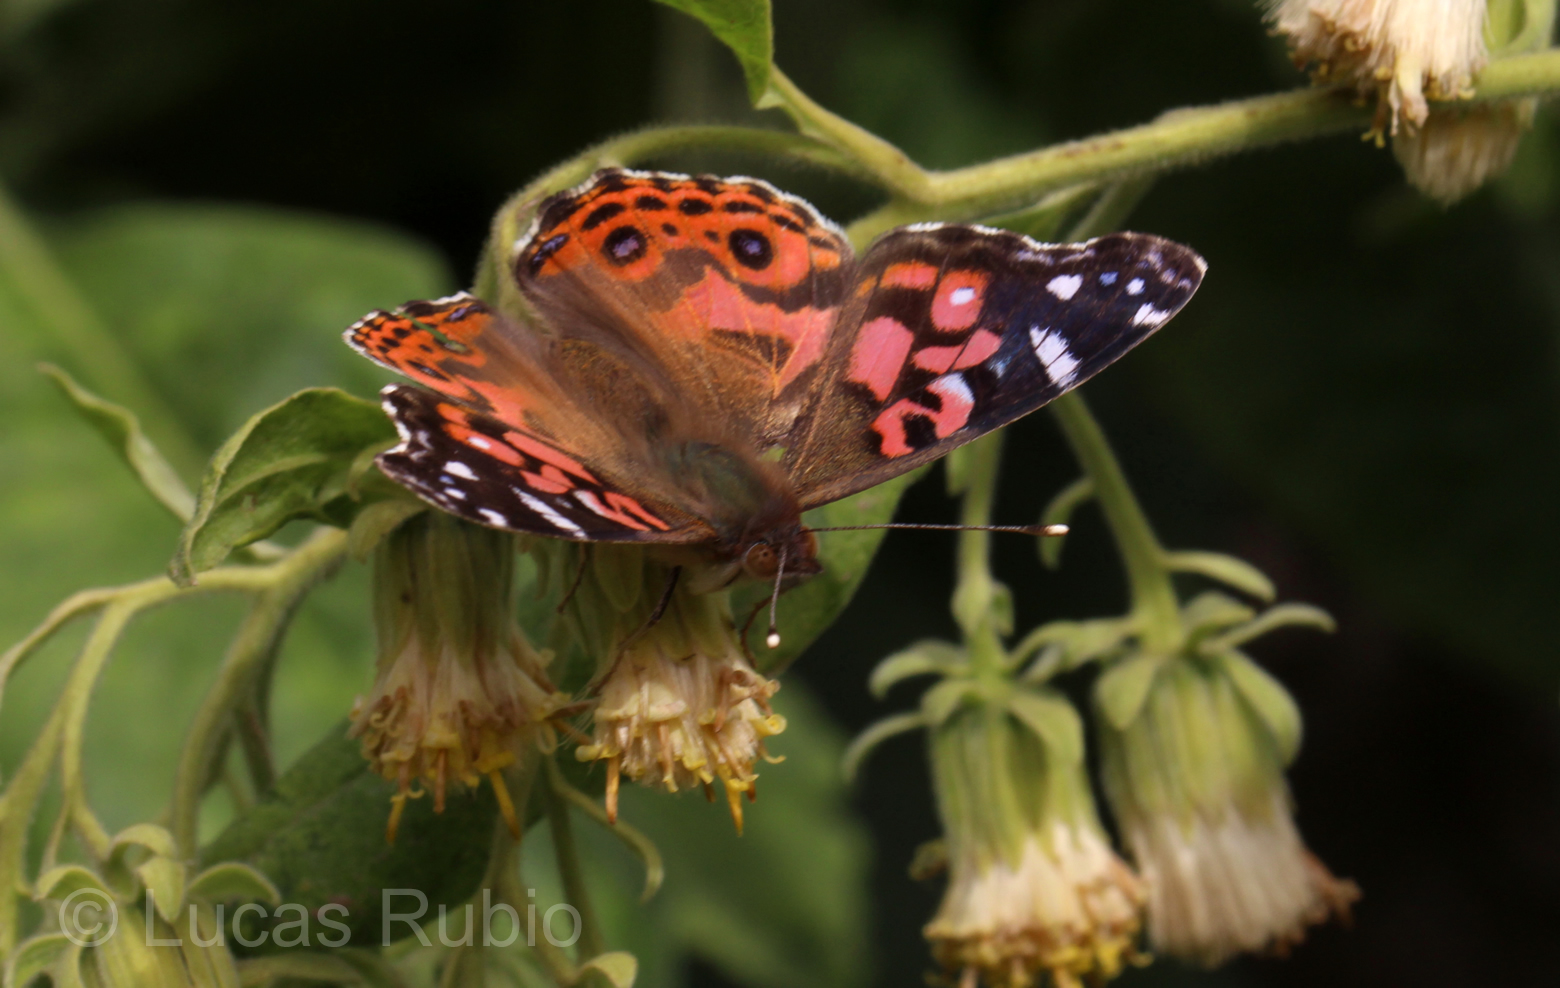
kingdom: Animalia
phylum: Arthropoda
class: Insecta
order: Lepidoptera
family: Nymphalidae
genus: Vanessa
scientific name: Vanessa braziliensis
